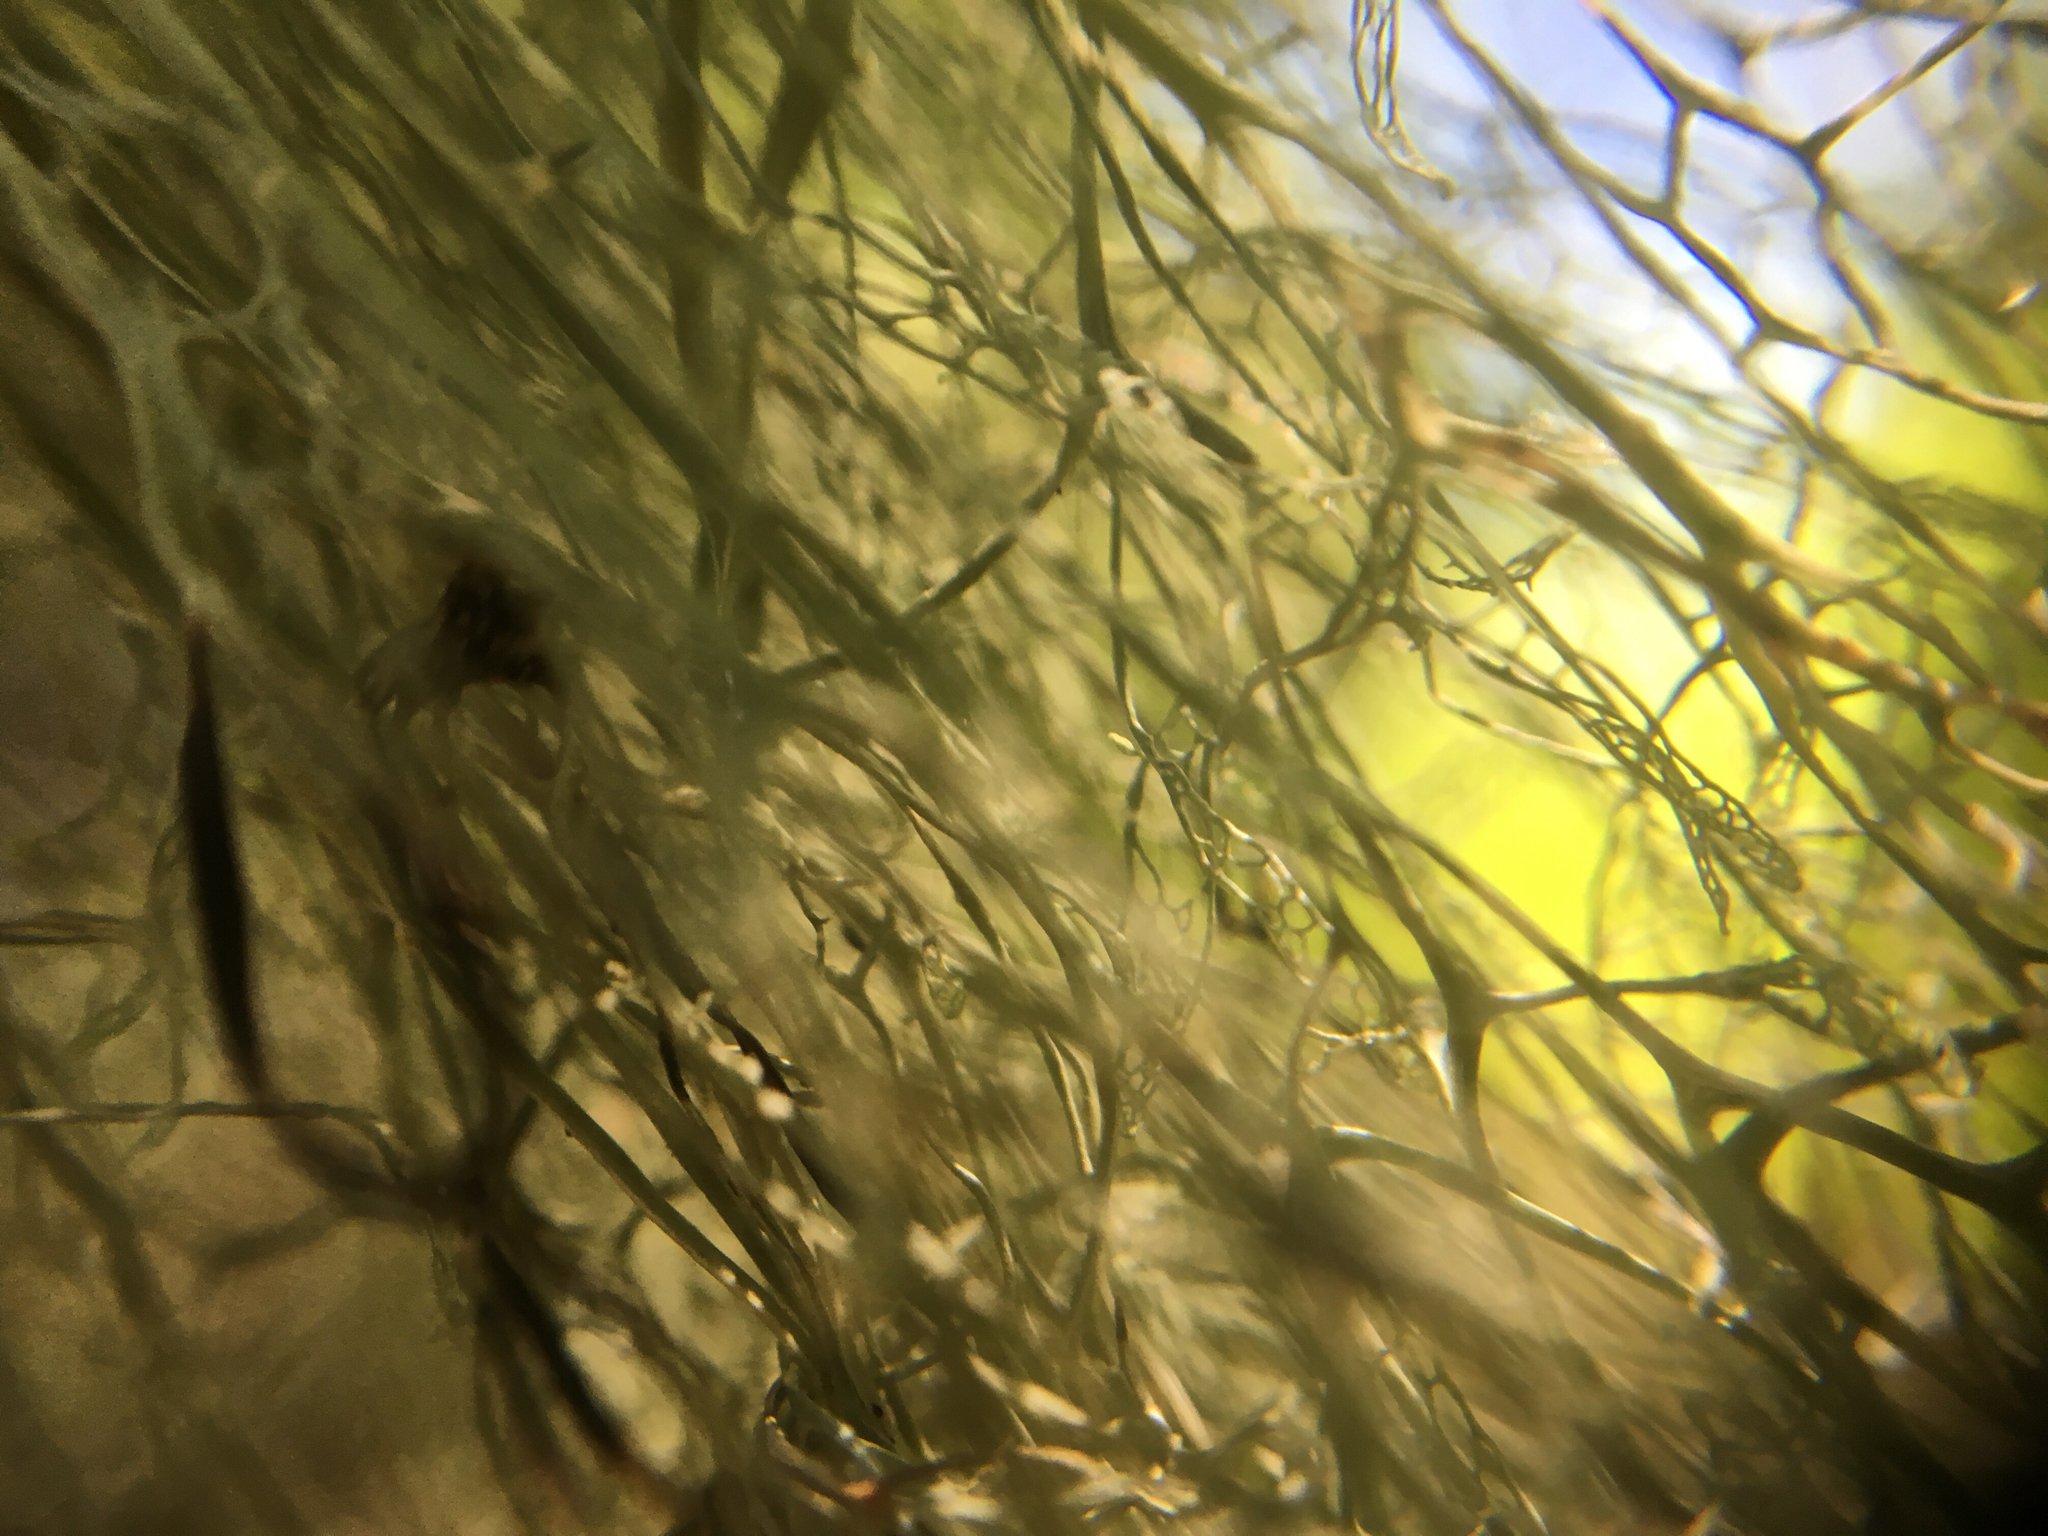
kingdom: Fungi
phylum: Ascomycota
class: Lecanoromycetes
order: Lecanorales
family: Ramalinaceae
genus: Ramalina
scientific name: Ramalina menziesii
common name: Lace lichen
